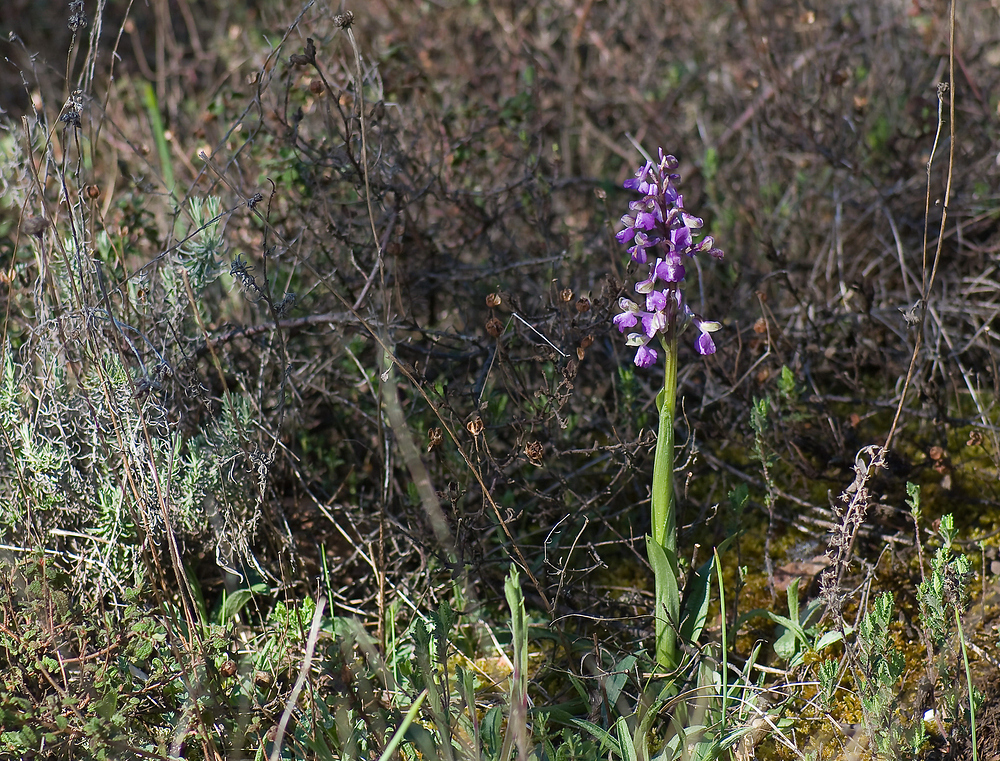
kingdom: Plantae
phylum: Tracheophyta
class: Liliopsida
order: Asparagales
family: Orchidaceae
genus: Anacamptis
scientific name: Anacamptis morio
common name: Green-winged orchid
